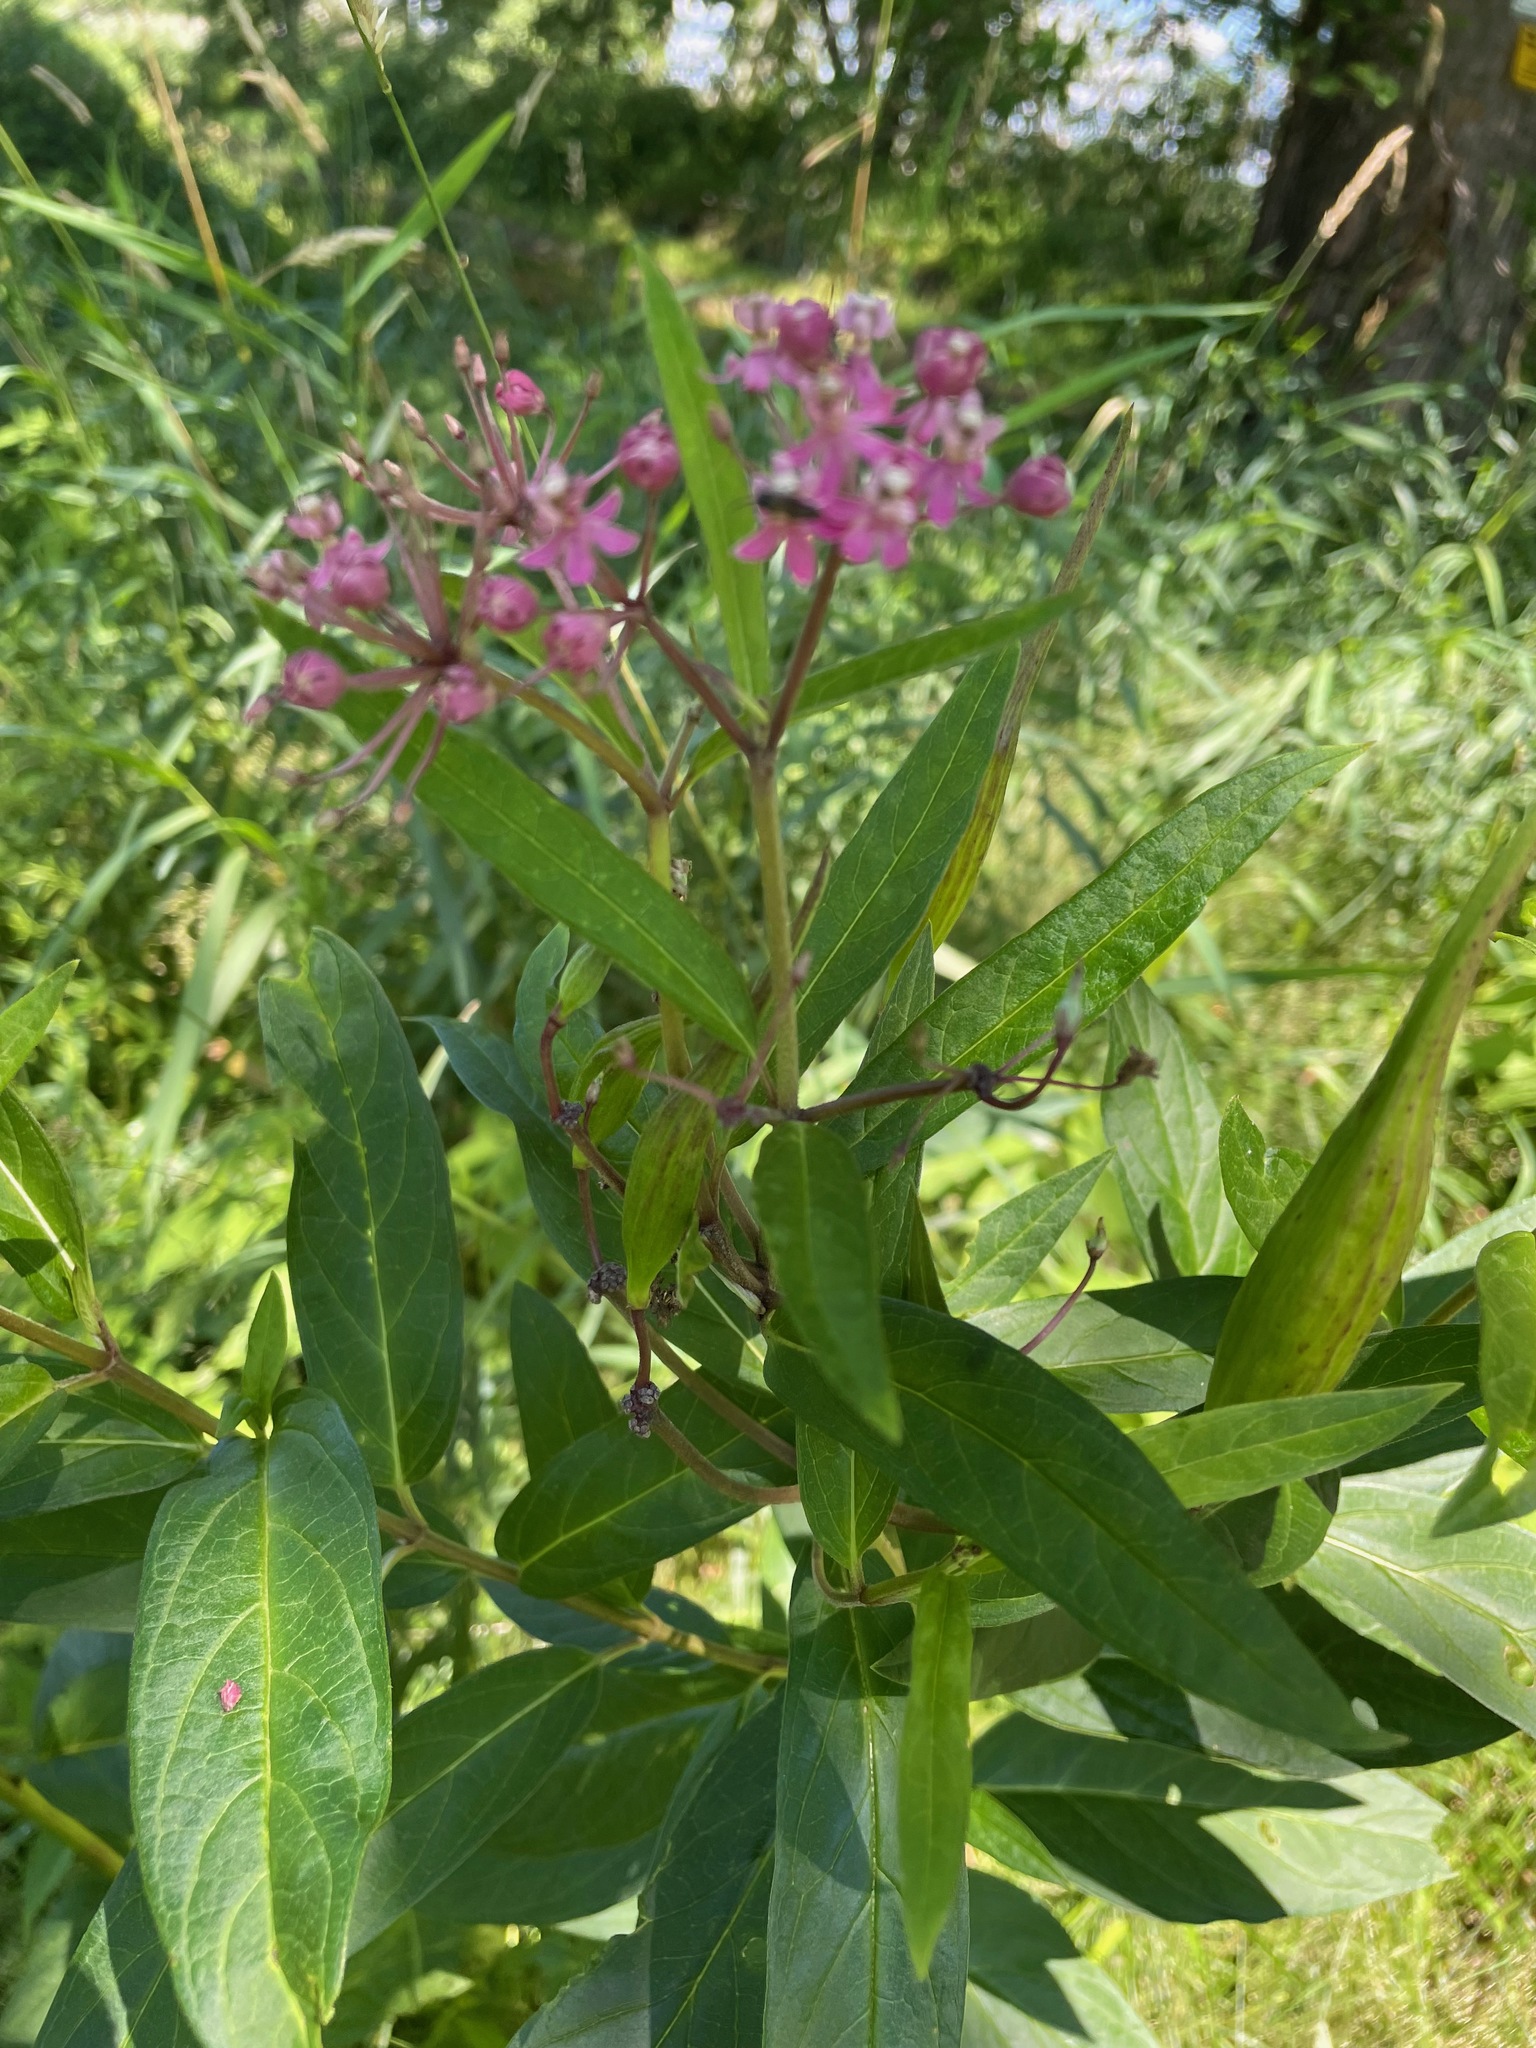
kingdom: Plantae
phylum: Tracheophyta
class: Magnoliopsida
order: Gentianales
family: Apocynaceae
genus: Asclepias
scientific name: Asclepias incarnata
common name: Swamp milkweed
